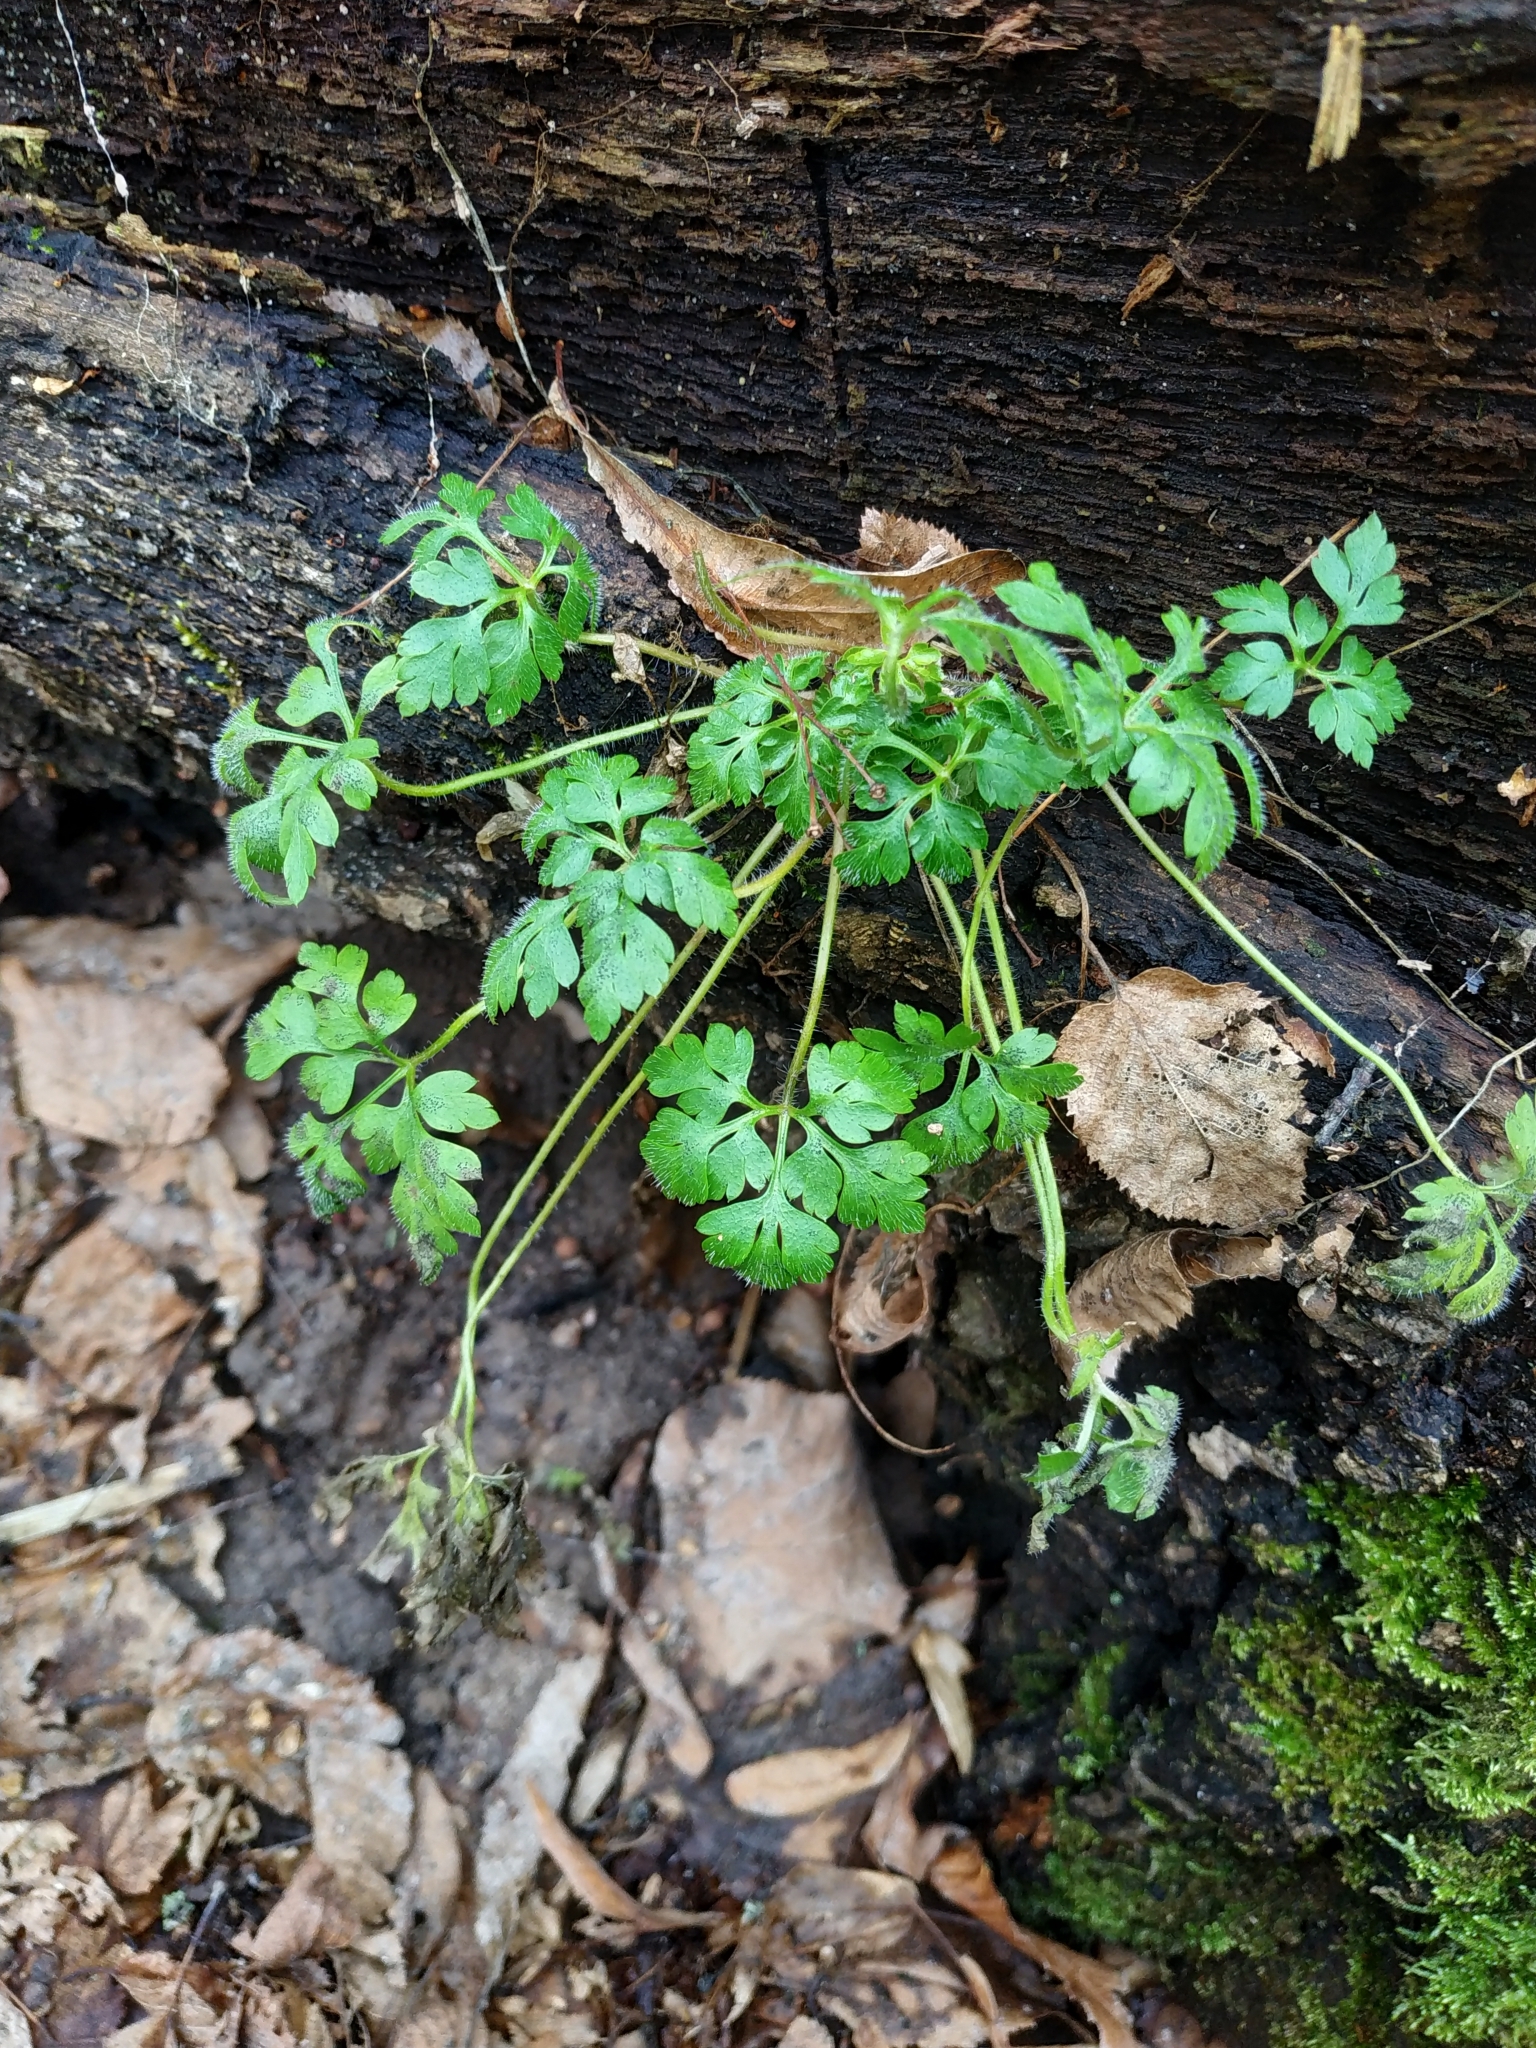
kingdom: Plantae
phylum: Tracheophyta
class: Magnoliopsida
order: Geraniales
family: Geraniaceae
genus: Geranium
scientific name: Geranium robertianum
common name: Herb-robert
